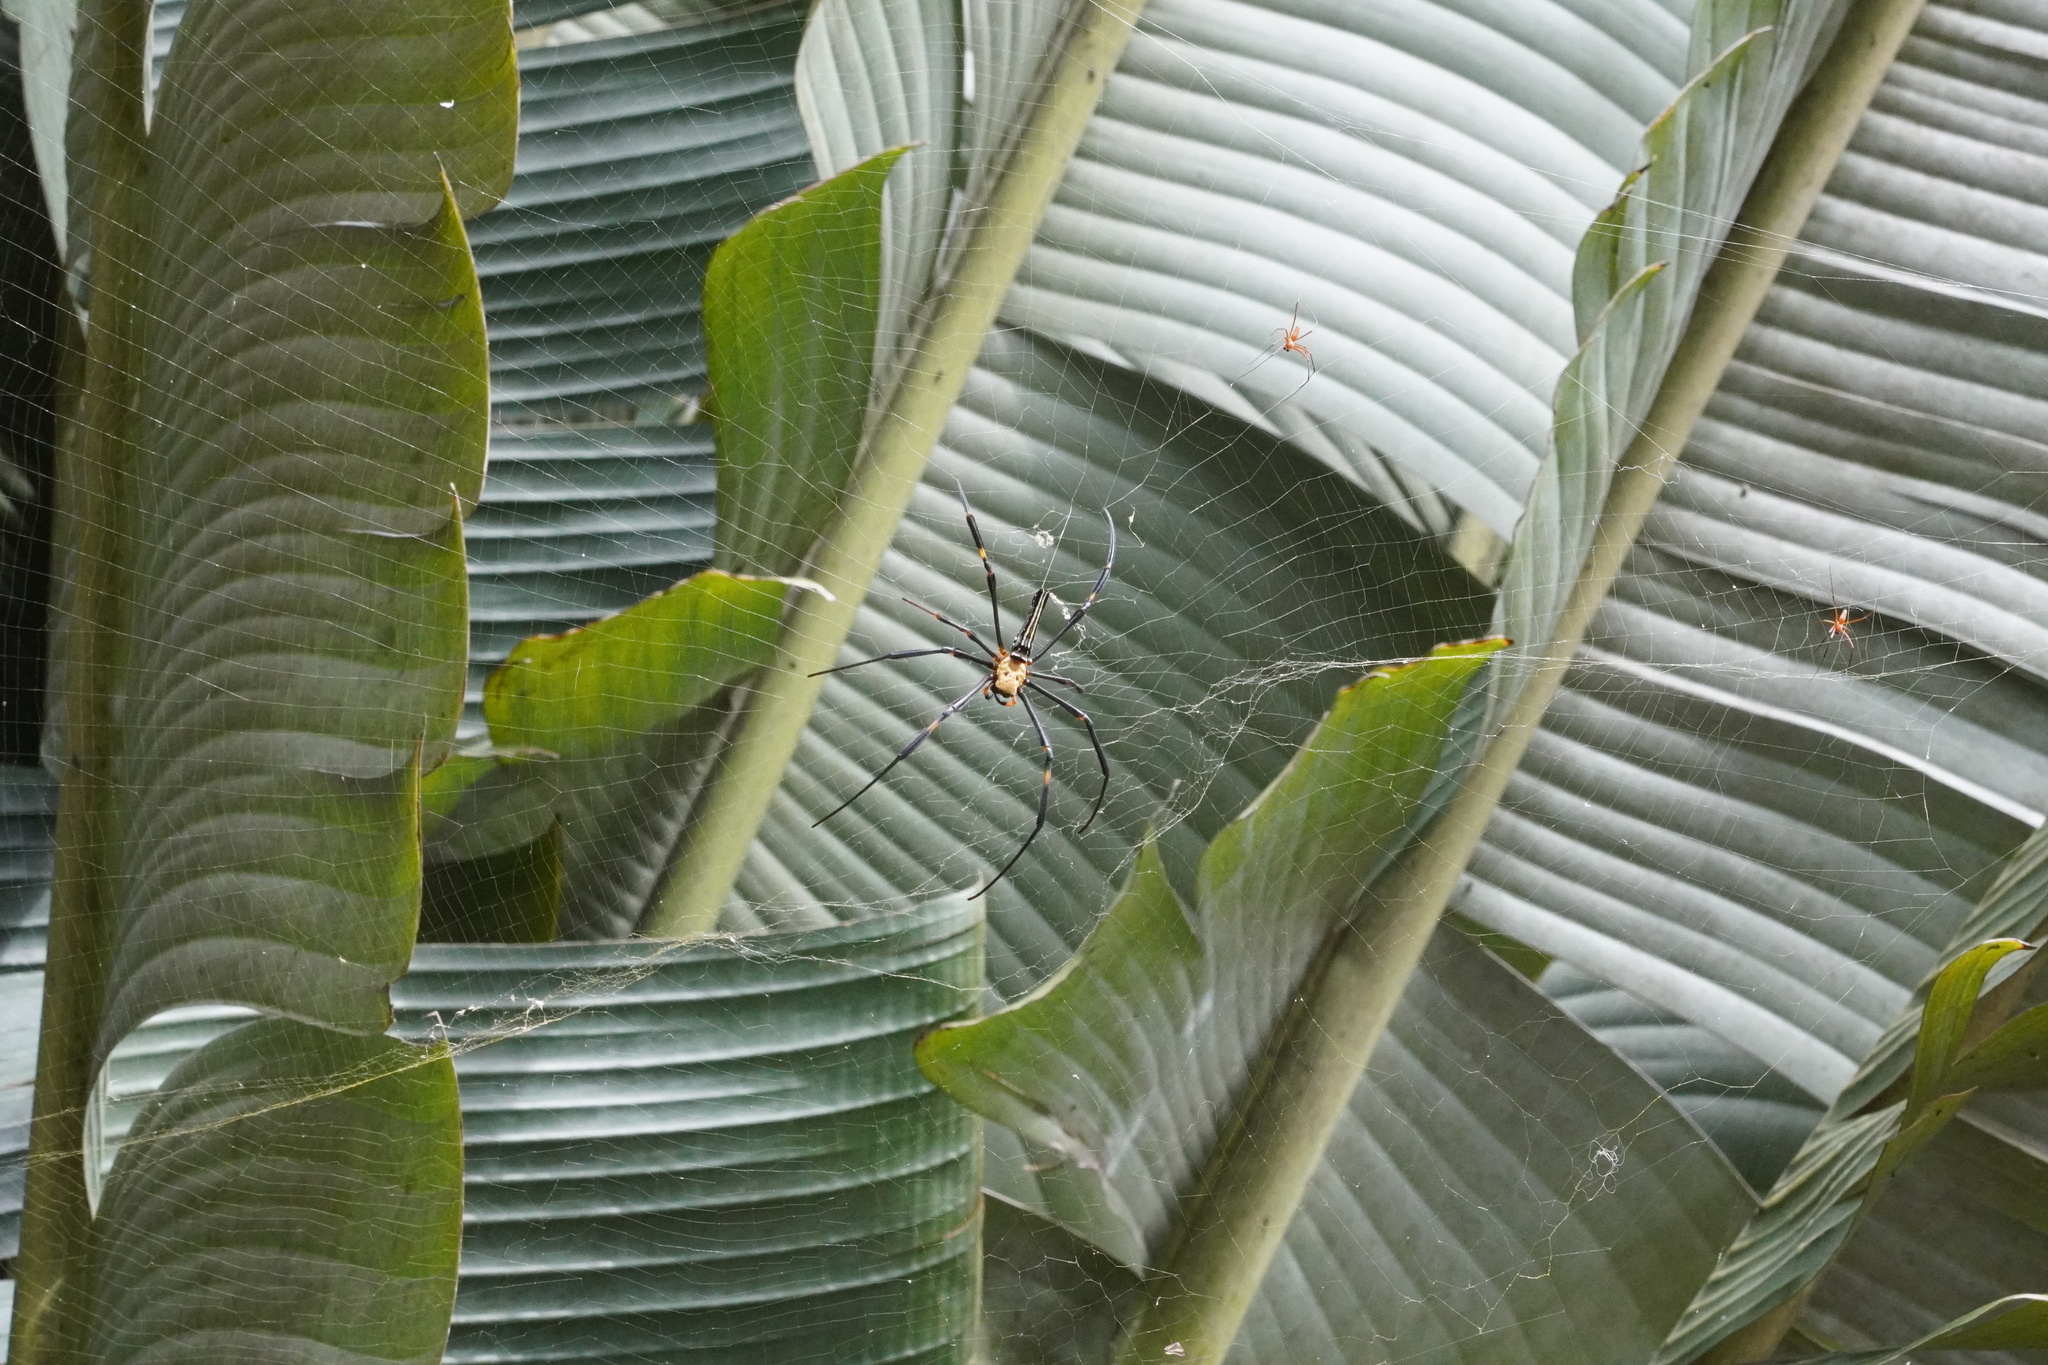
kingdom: Animalia
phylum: Arthropoda
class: Arachnida
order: Araneae
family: Araneidae
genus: Nephila
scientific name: Nephila pilipes
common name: Giant golden orb weaver
